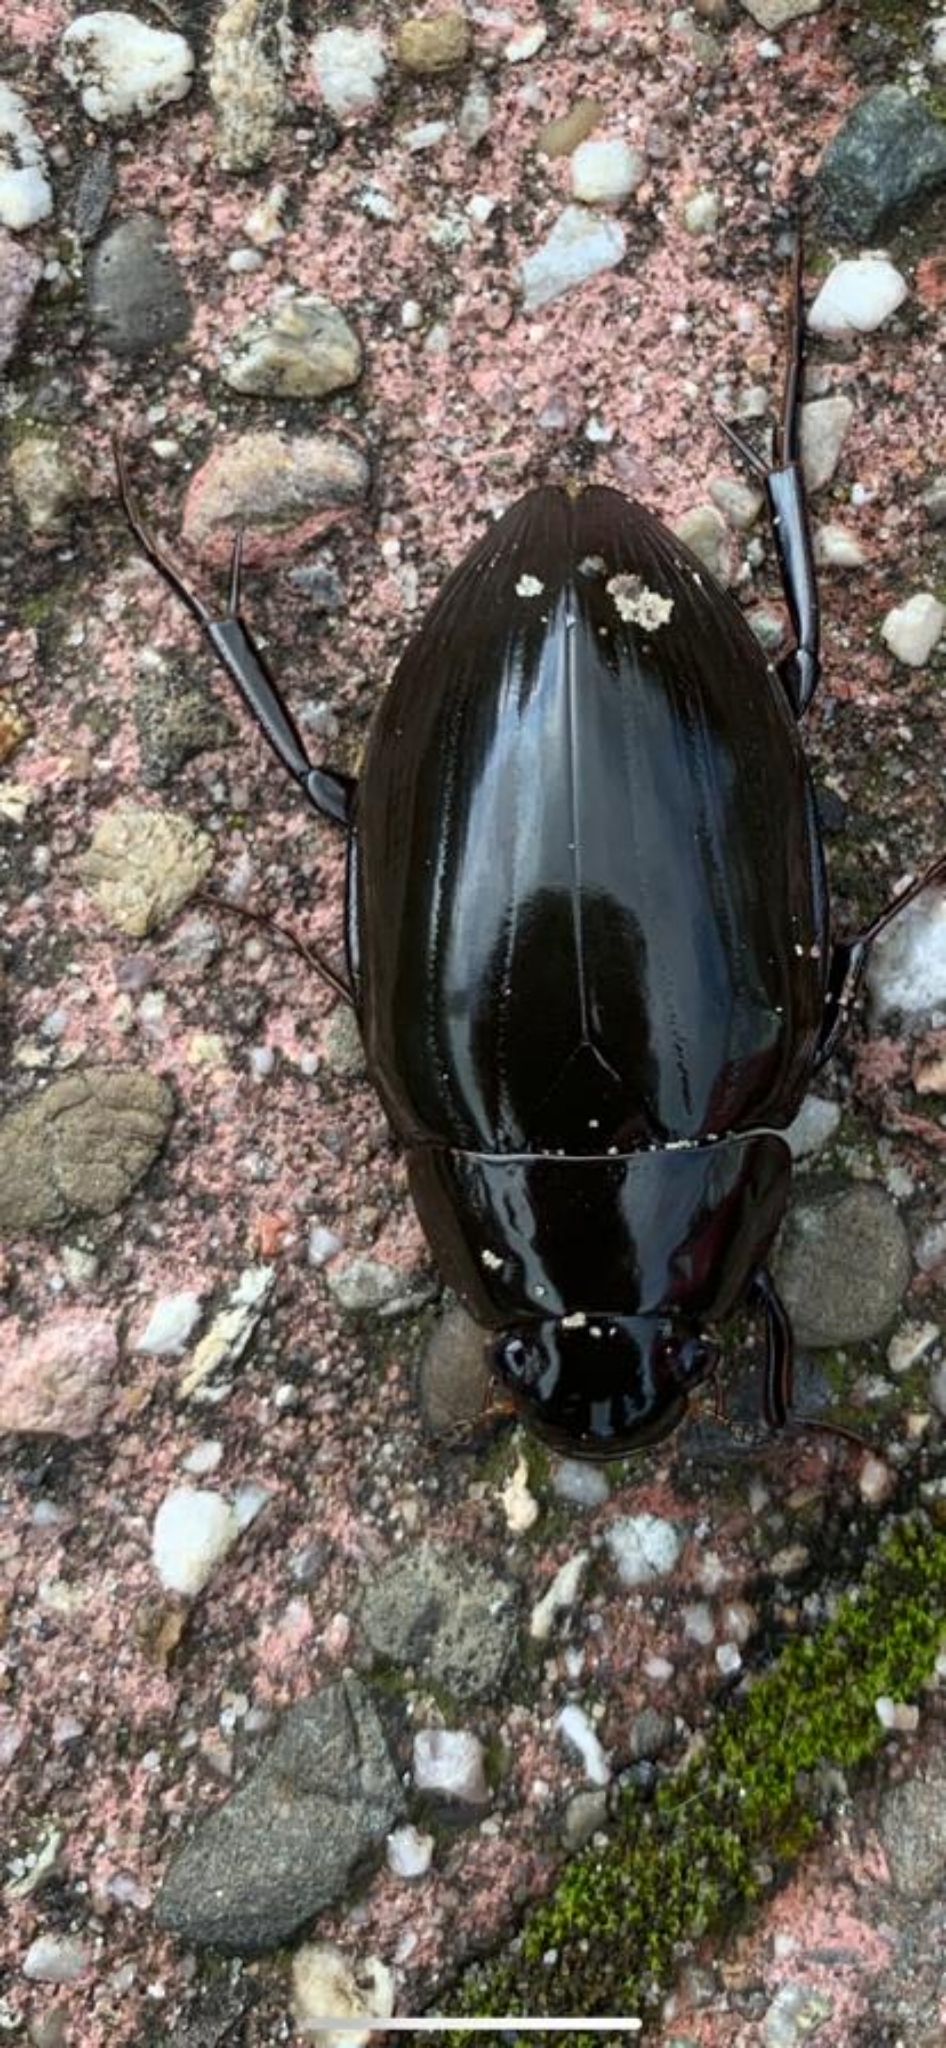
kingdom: Animalia
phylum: Arthropoda
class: Insecta
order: Coleoptera
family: Hydrophilidae
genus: Hydrophilus
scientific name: Hydrophilus piceus
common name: Great silver water beetle
